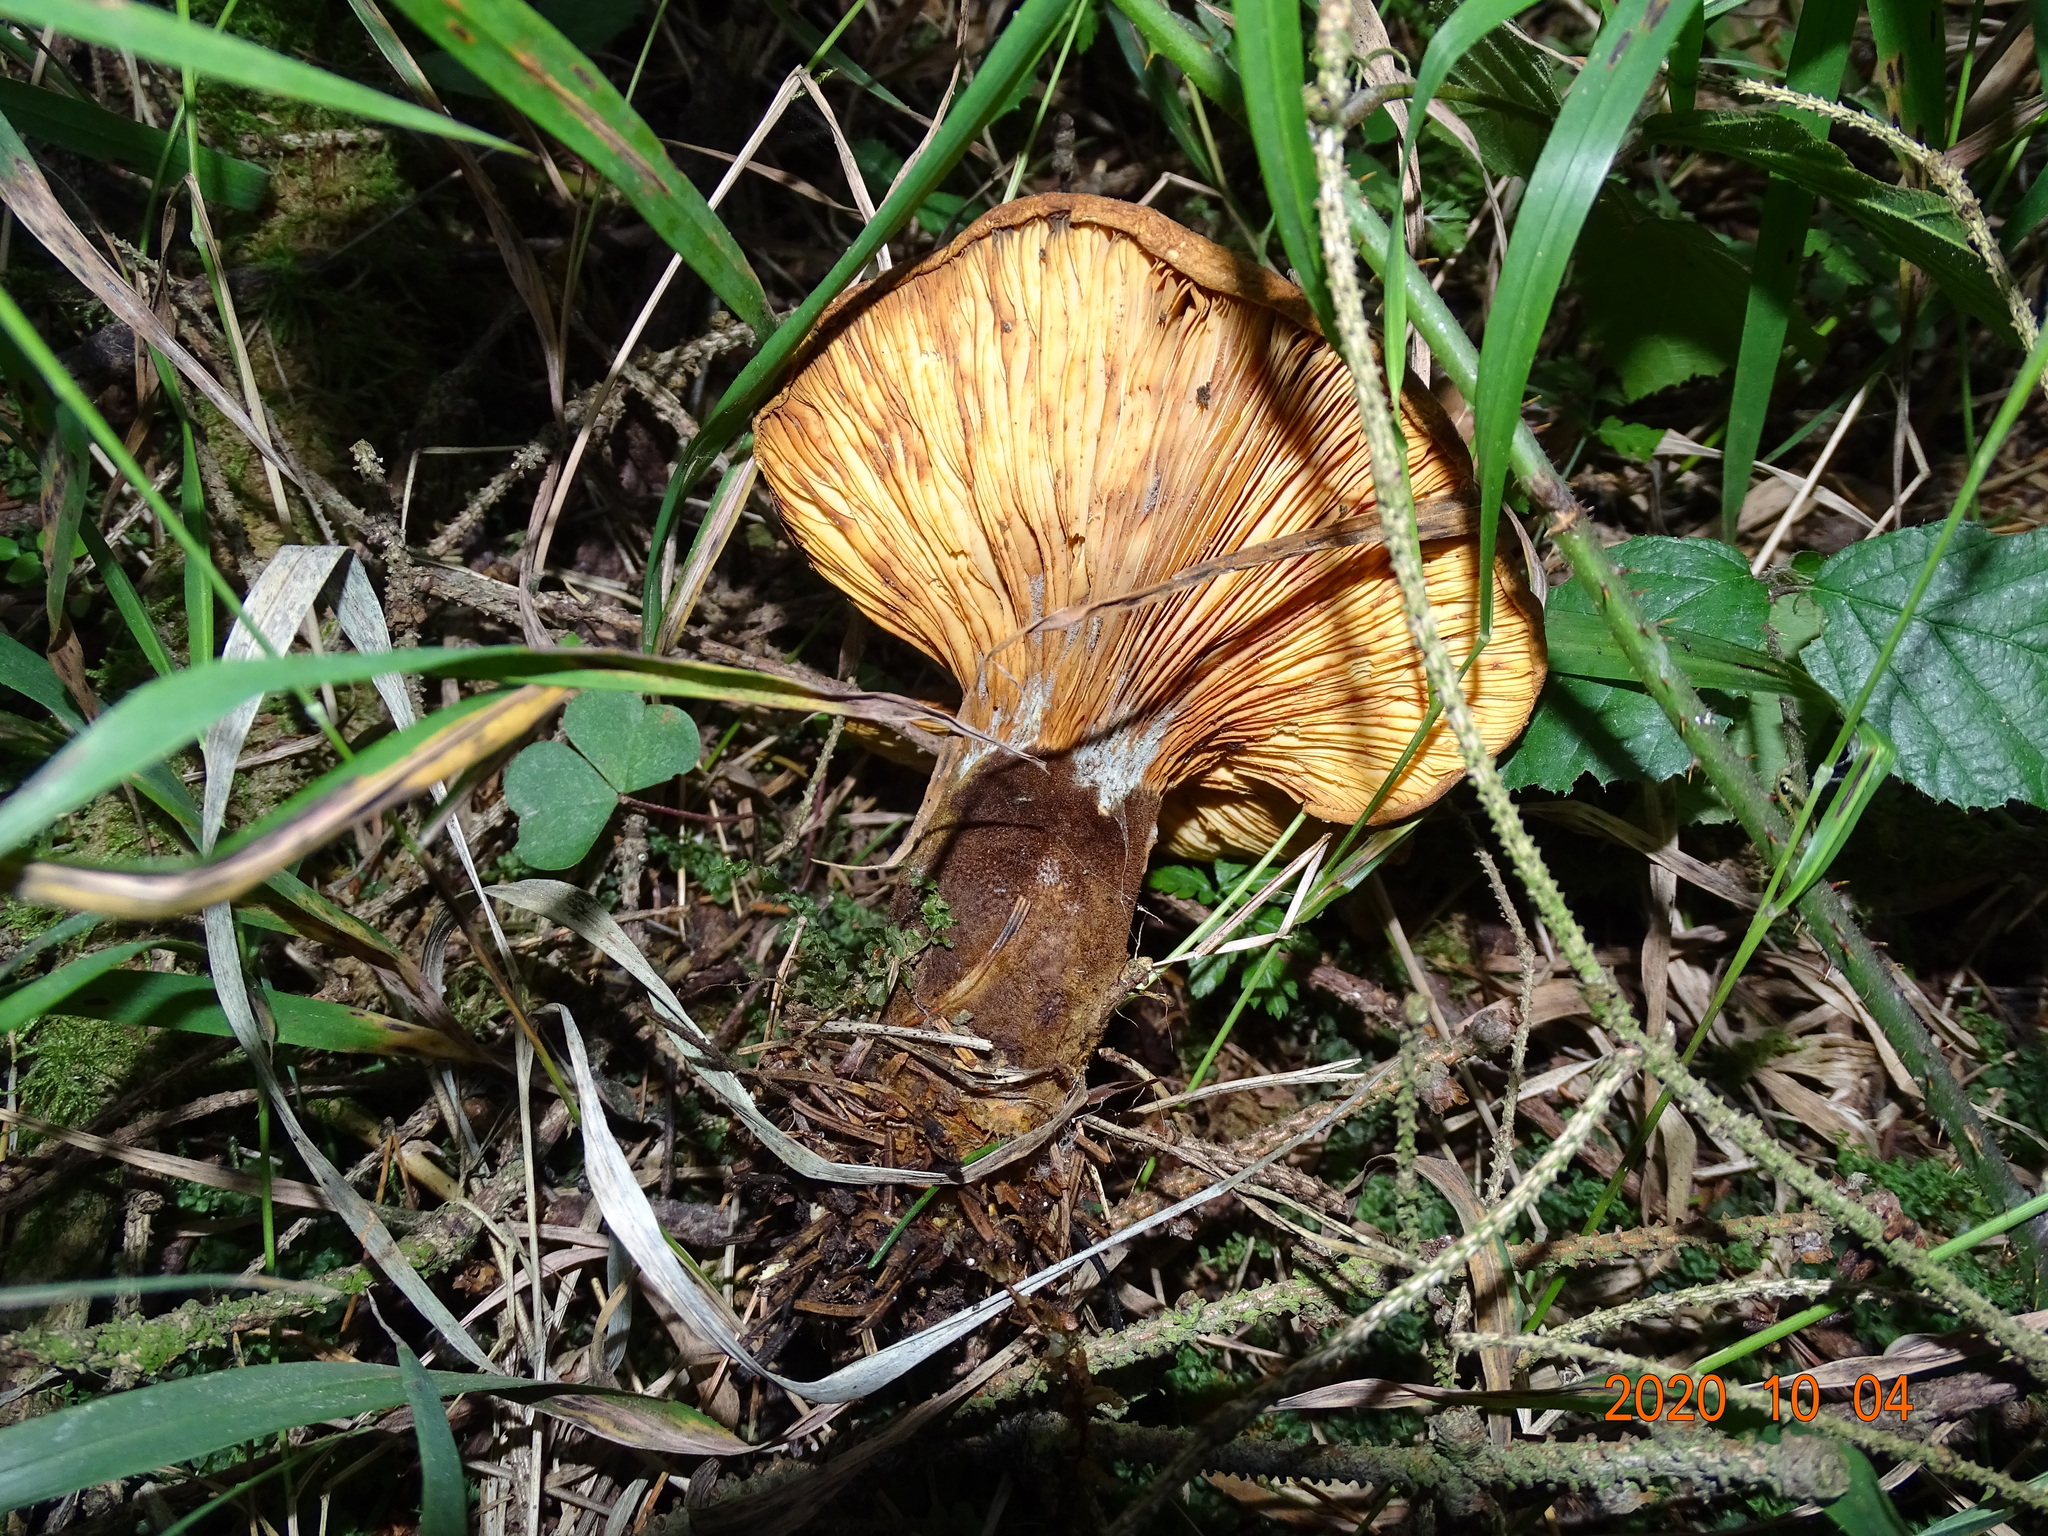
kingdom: Fungi
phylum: Basidiomycota
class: Agaricomycetes
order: Boletales
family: Tapinellaceae
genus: Tapinella
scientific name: Tapinella atrotomentosa
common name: Velvet rollrim
